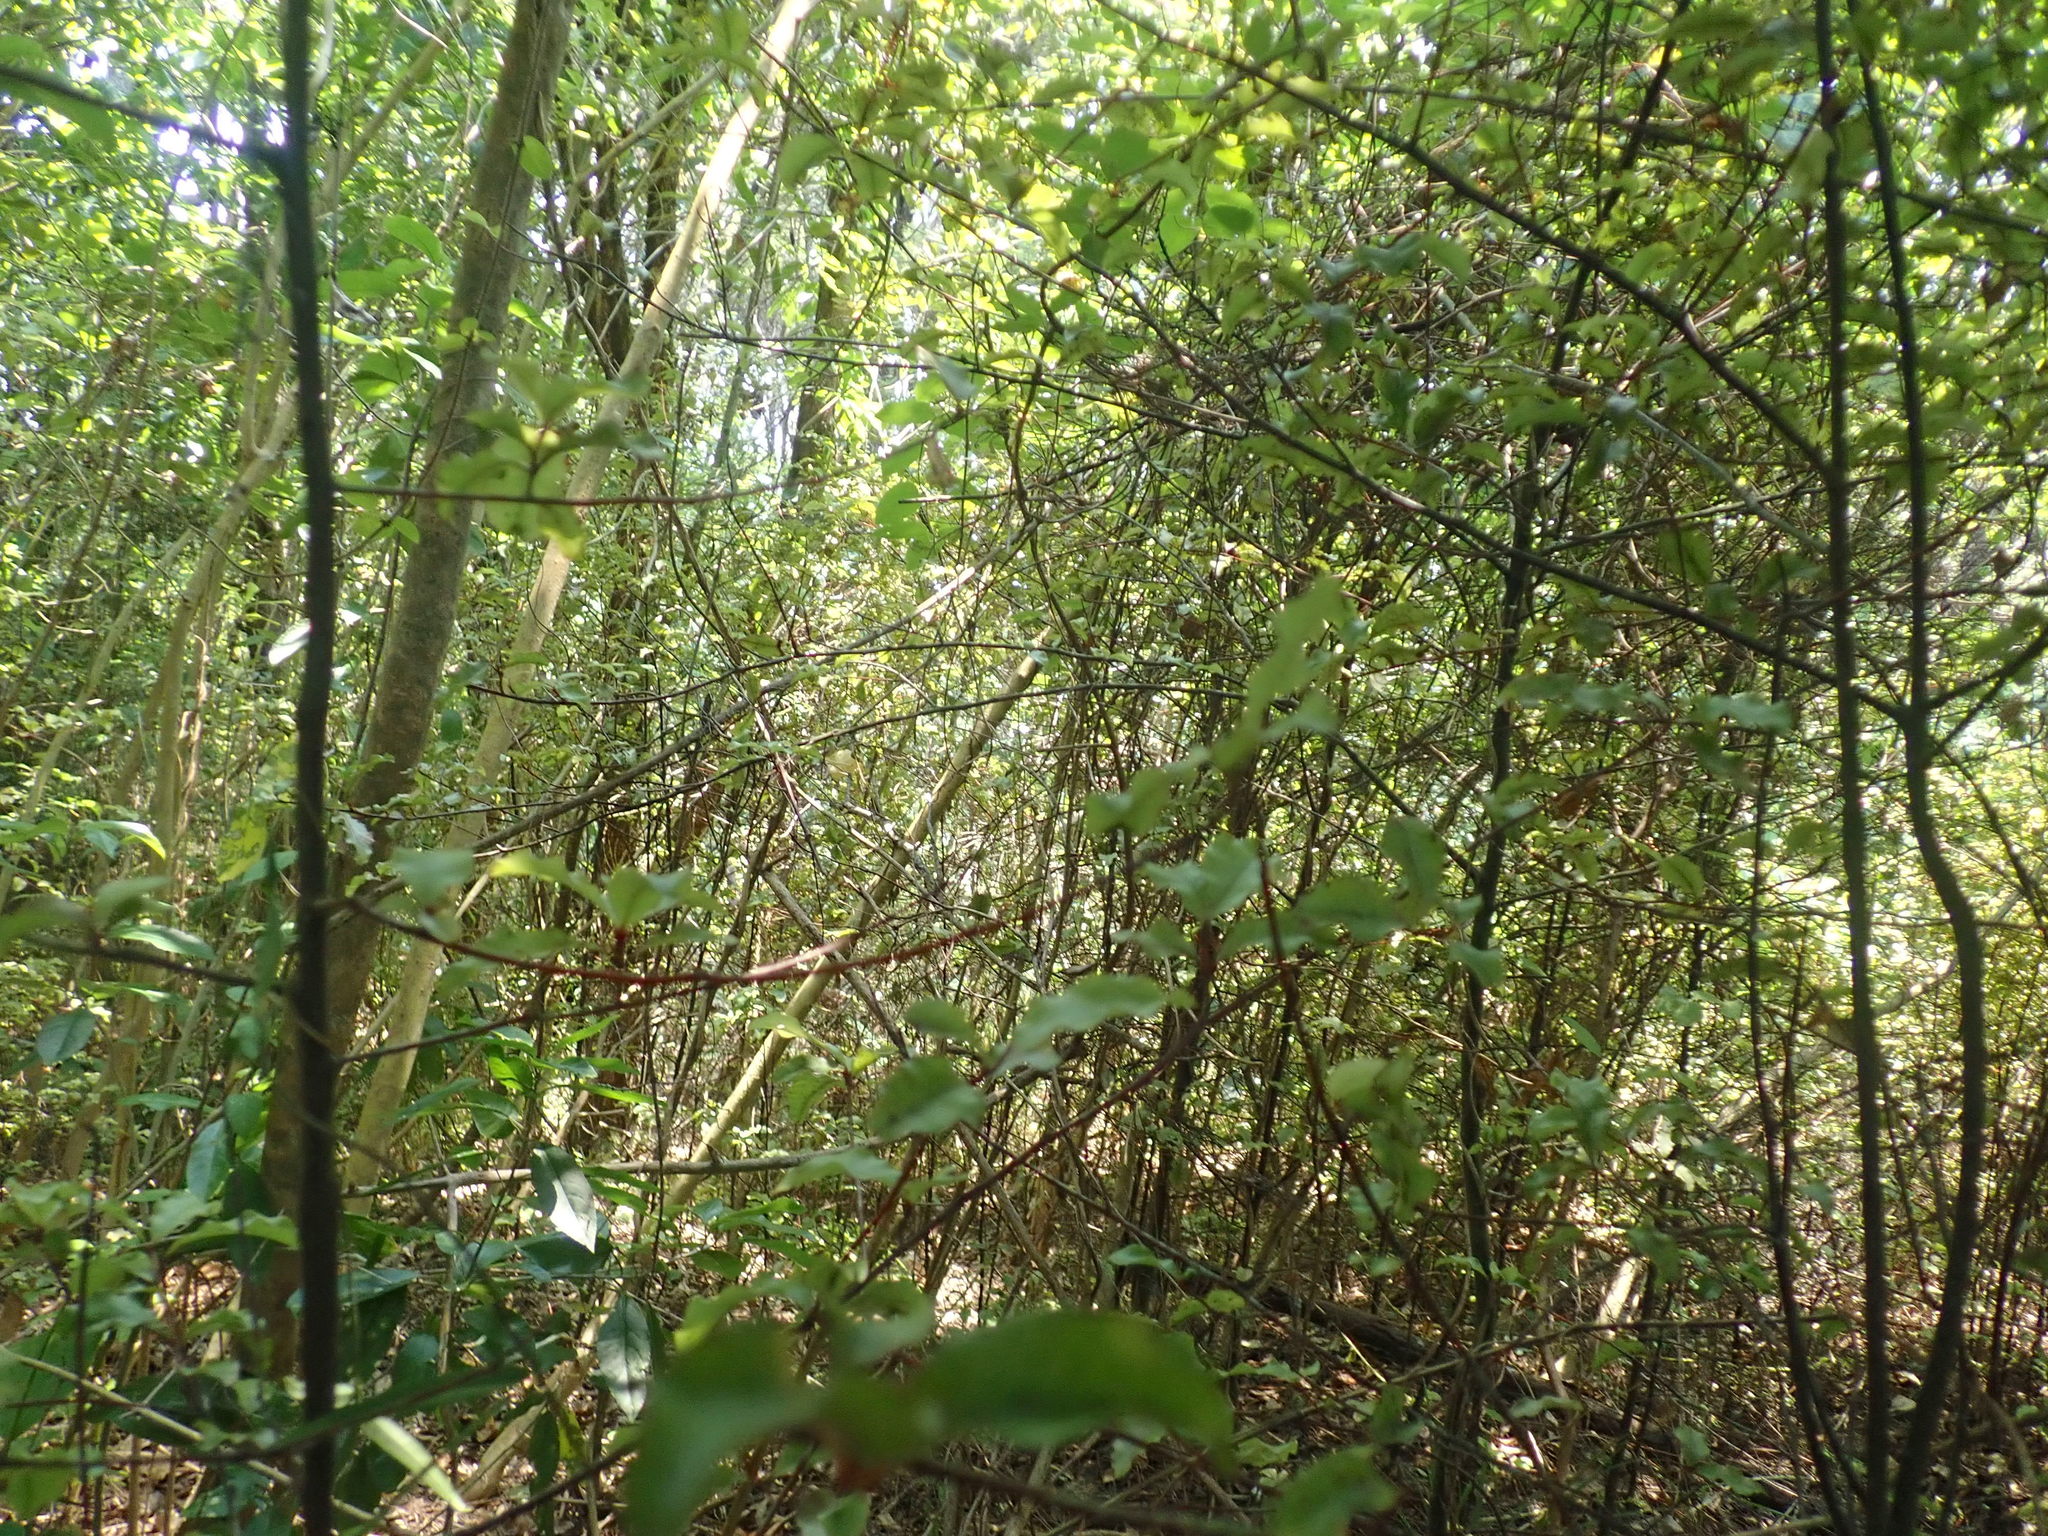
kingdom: Plantae
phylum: Tracheophyta
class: Magnoliopsida
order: Ericales
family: Primulaceae
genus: Myrsine
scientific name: Myrsine australis
